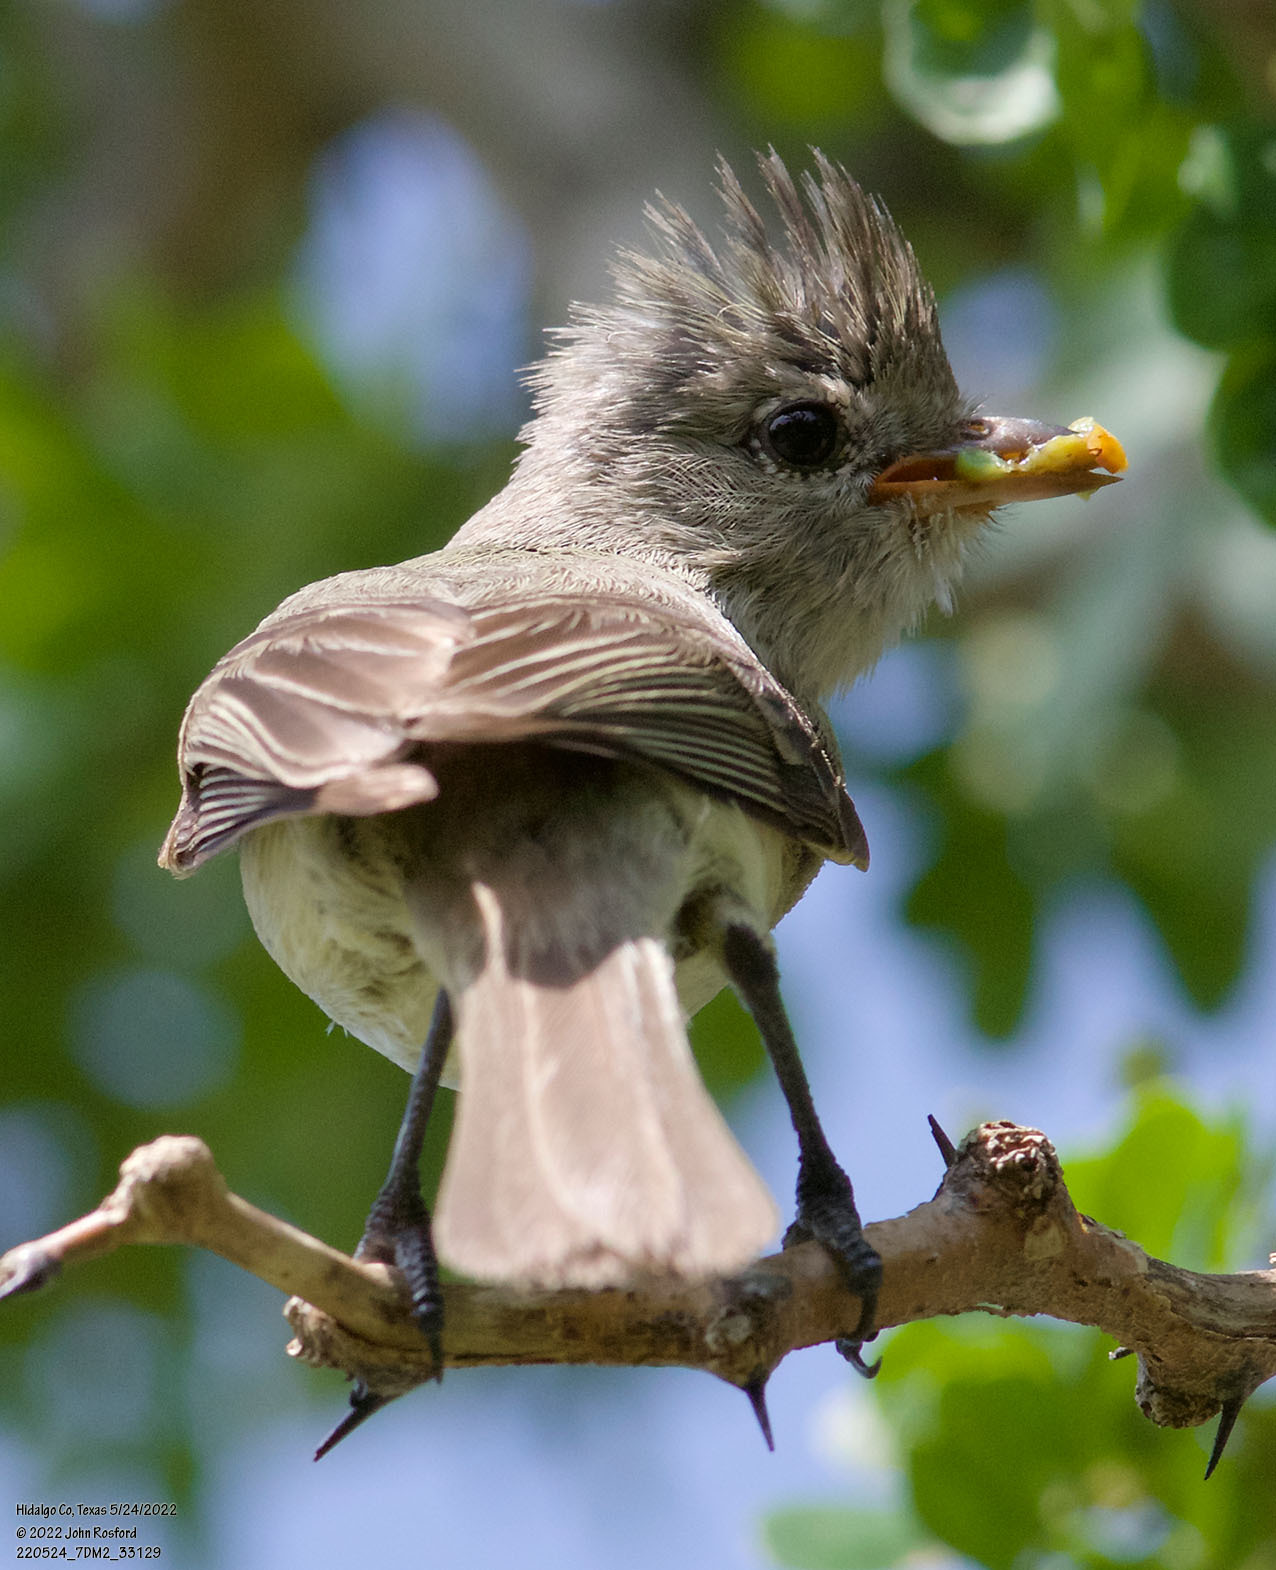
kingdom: Animalia
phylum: Chordata
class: Aves
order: Passeriformes
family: Tyrannidae
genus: Camptostoma
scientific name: Camptostoma imberbe
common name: Northern beardless-tyrannulet
